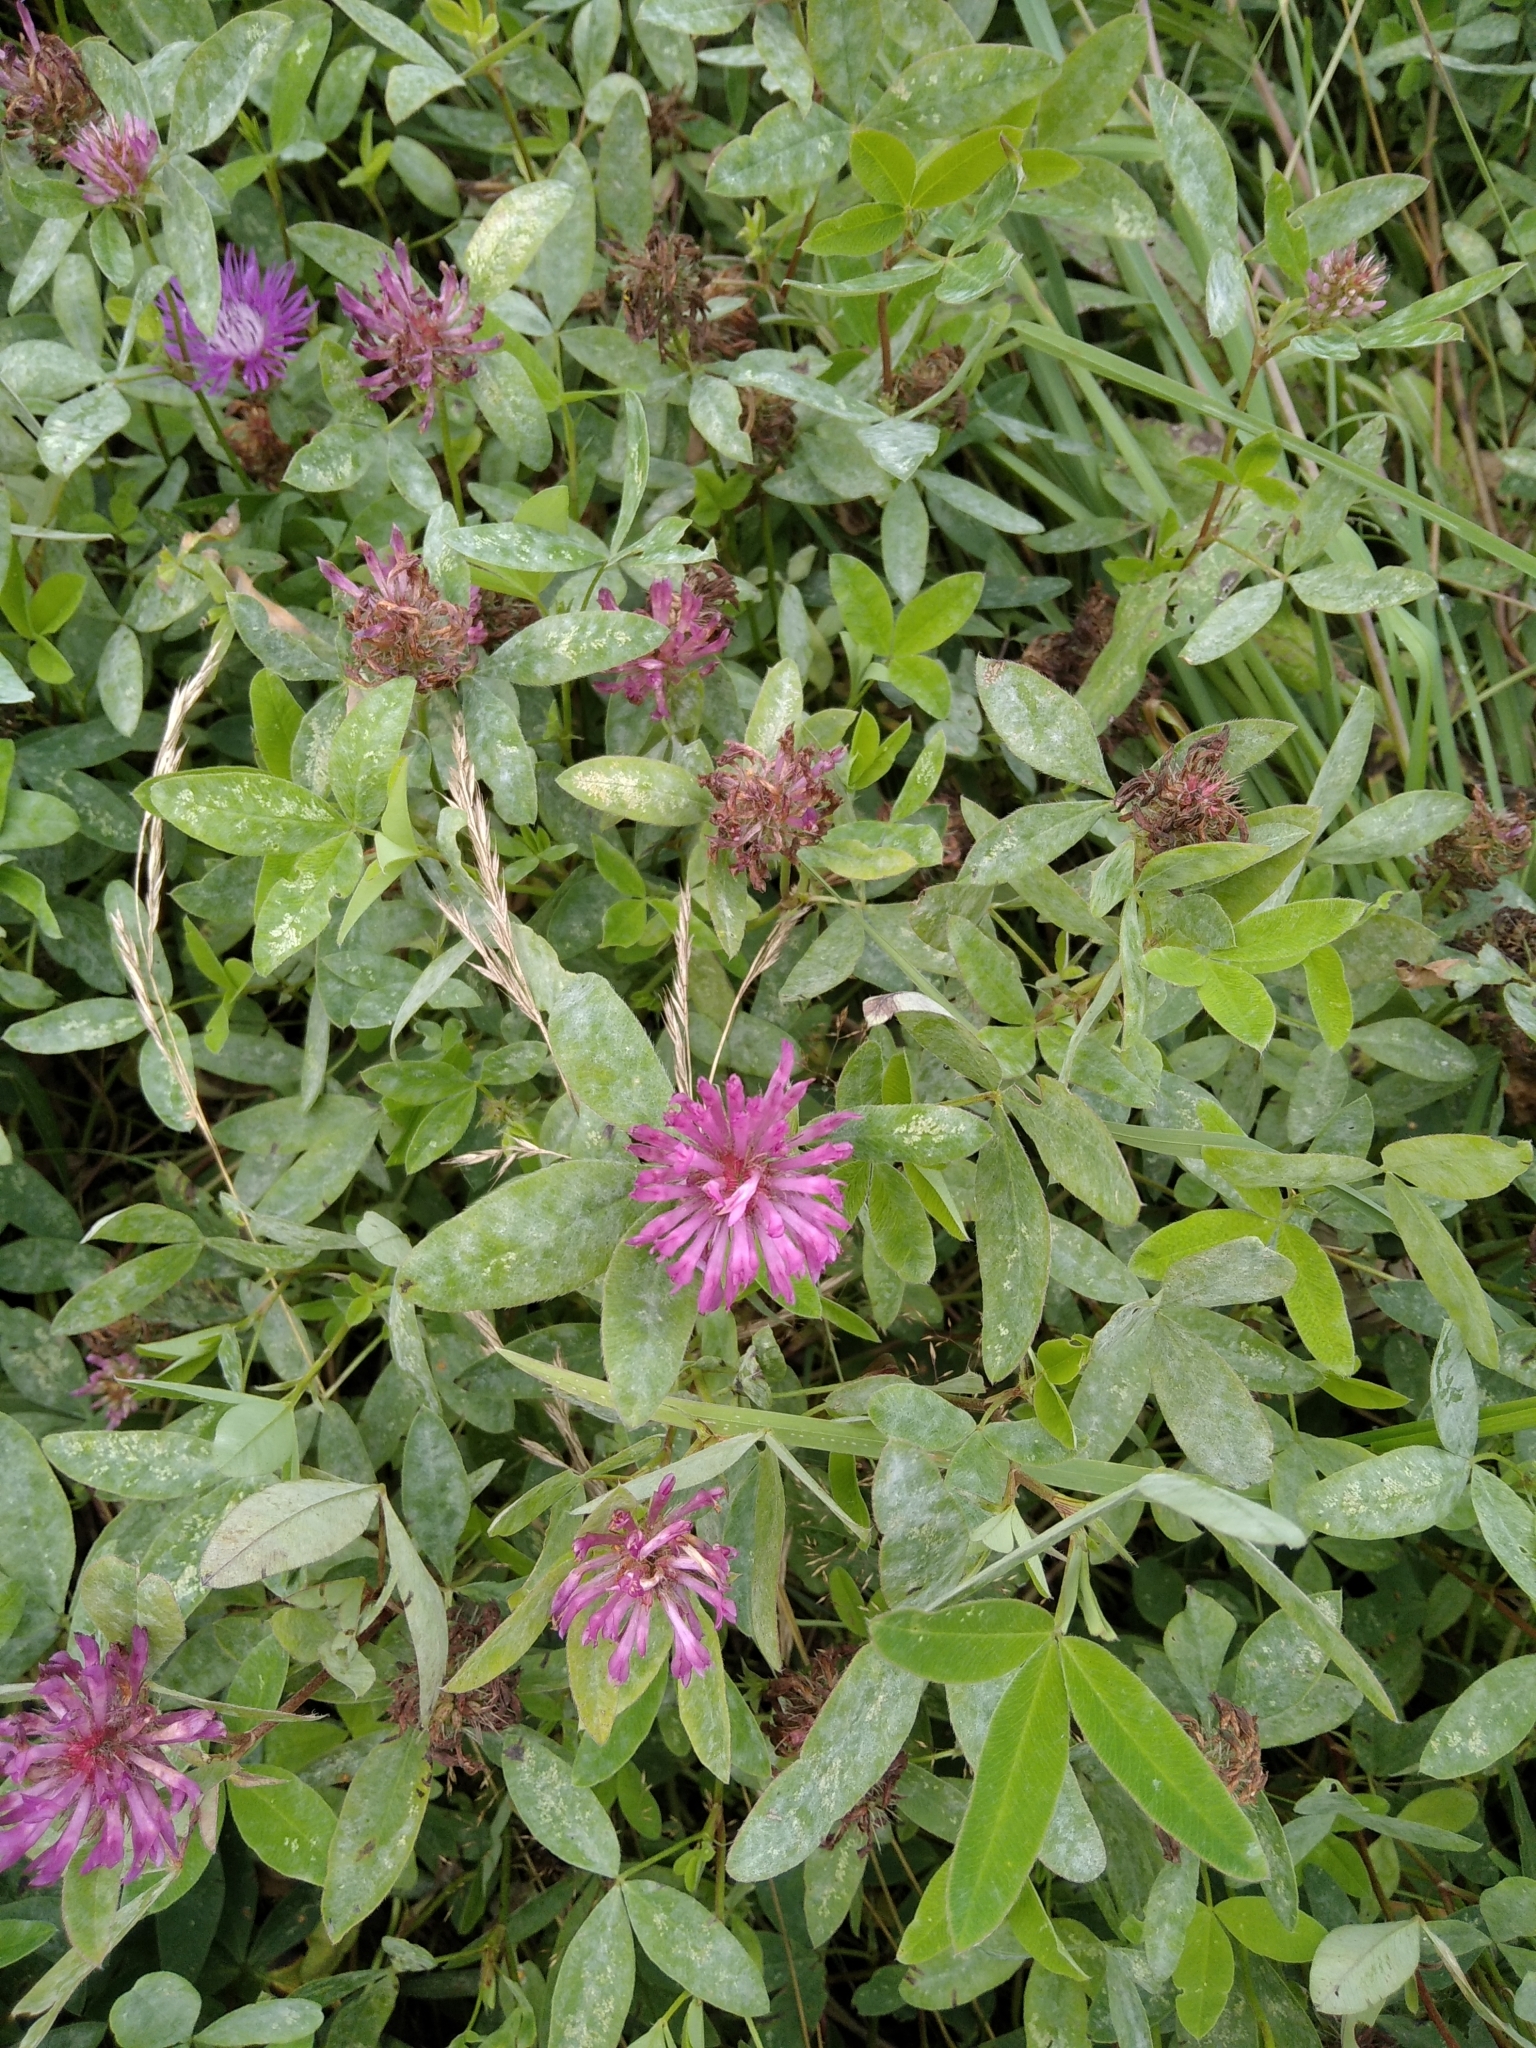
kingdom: Plantae
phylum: Tracheophyta
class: Magnoliopsida
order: Fabales
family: Fabaceae
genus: Trifolium
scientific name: Trifolium medium
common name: Zigzag clover
